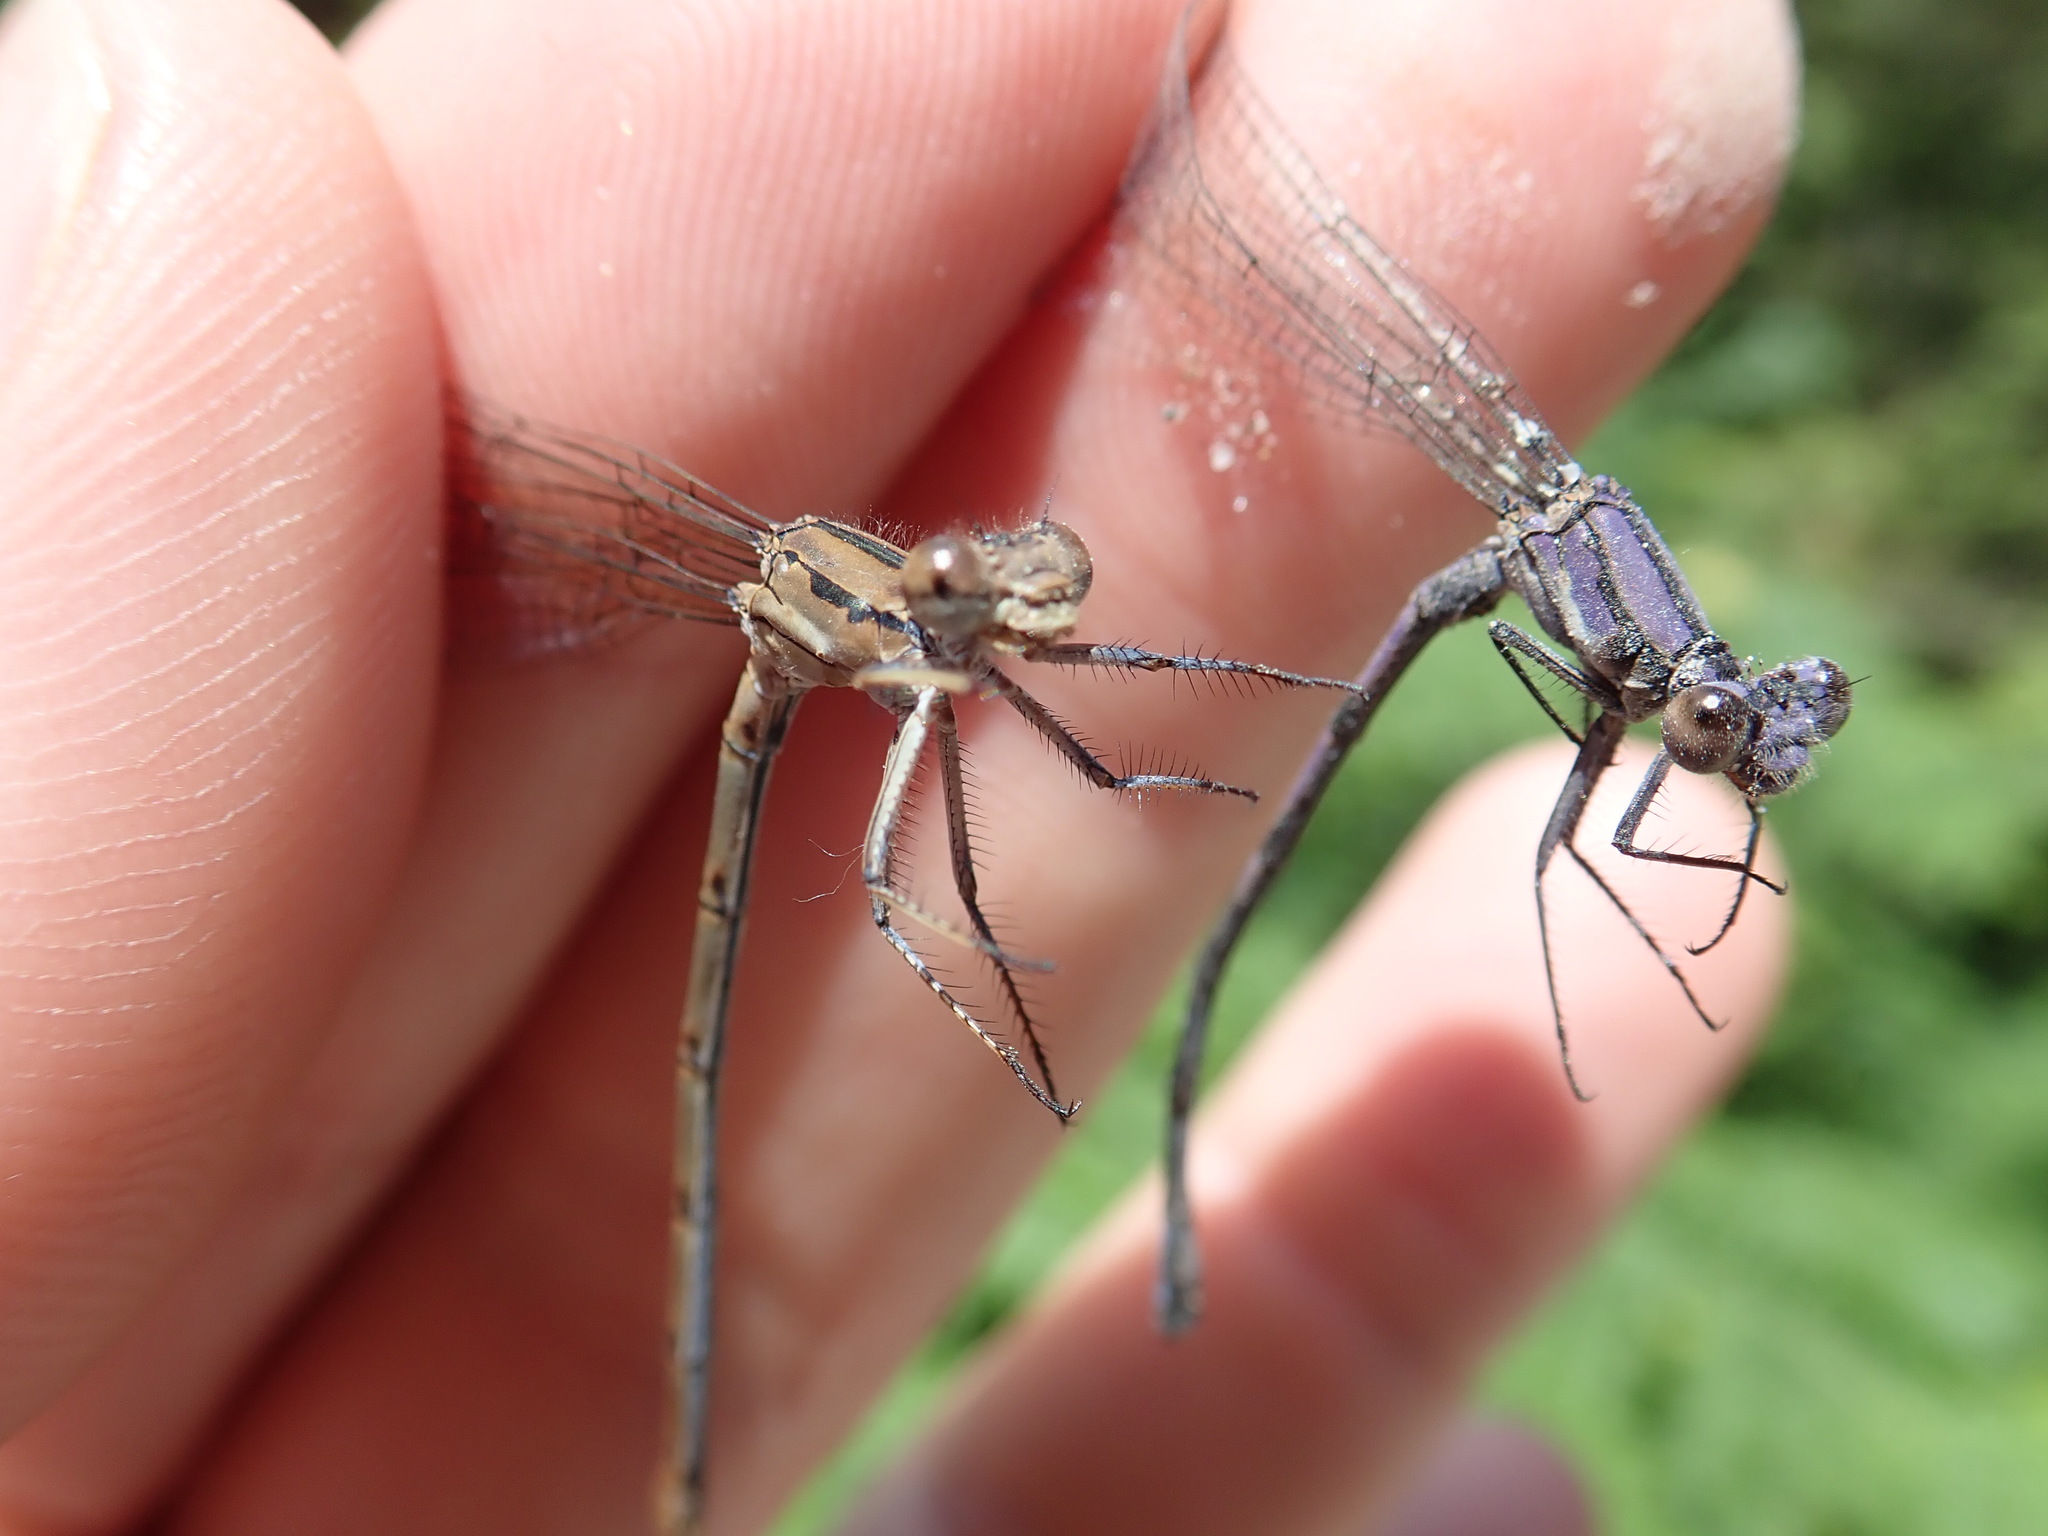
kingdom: Animalia
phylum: Arthropoda
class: Insecta
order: Odonata
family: Coenagrionidae
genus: Argia
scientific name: Argia emma
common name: Emma's dancer
